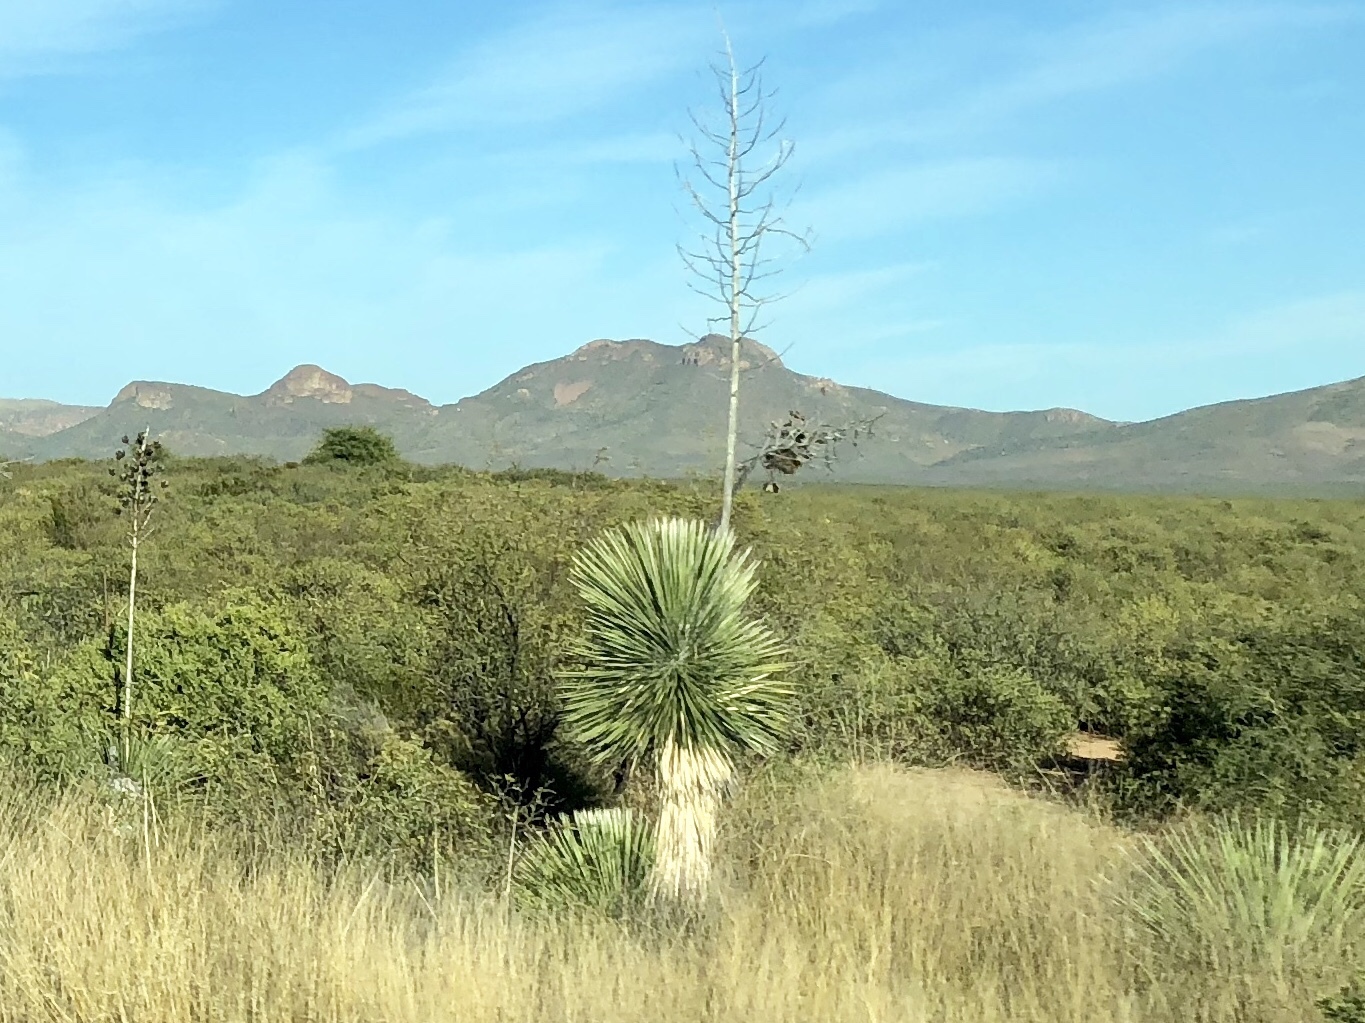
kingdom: Plantae
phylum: Tracheophyta
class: Liliopsida
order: Asparagales
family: Asparagaceae
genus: Yucca
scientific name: Yucca elata
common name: Palmella
